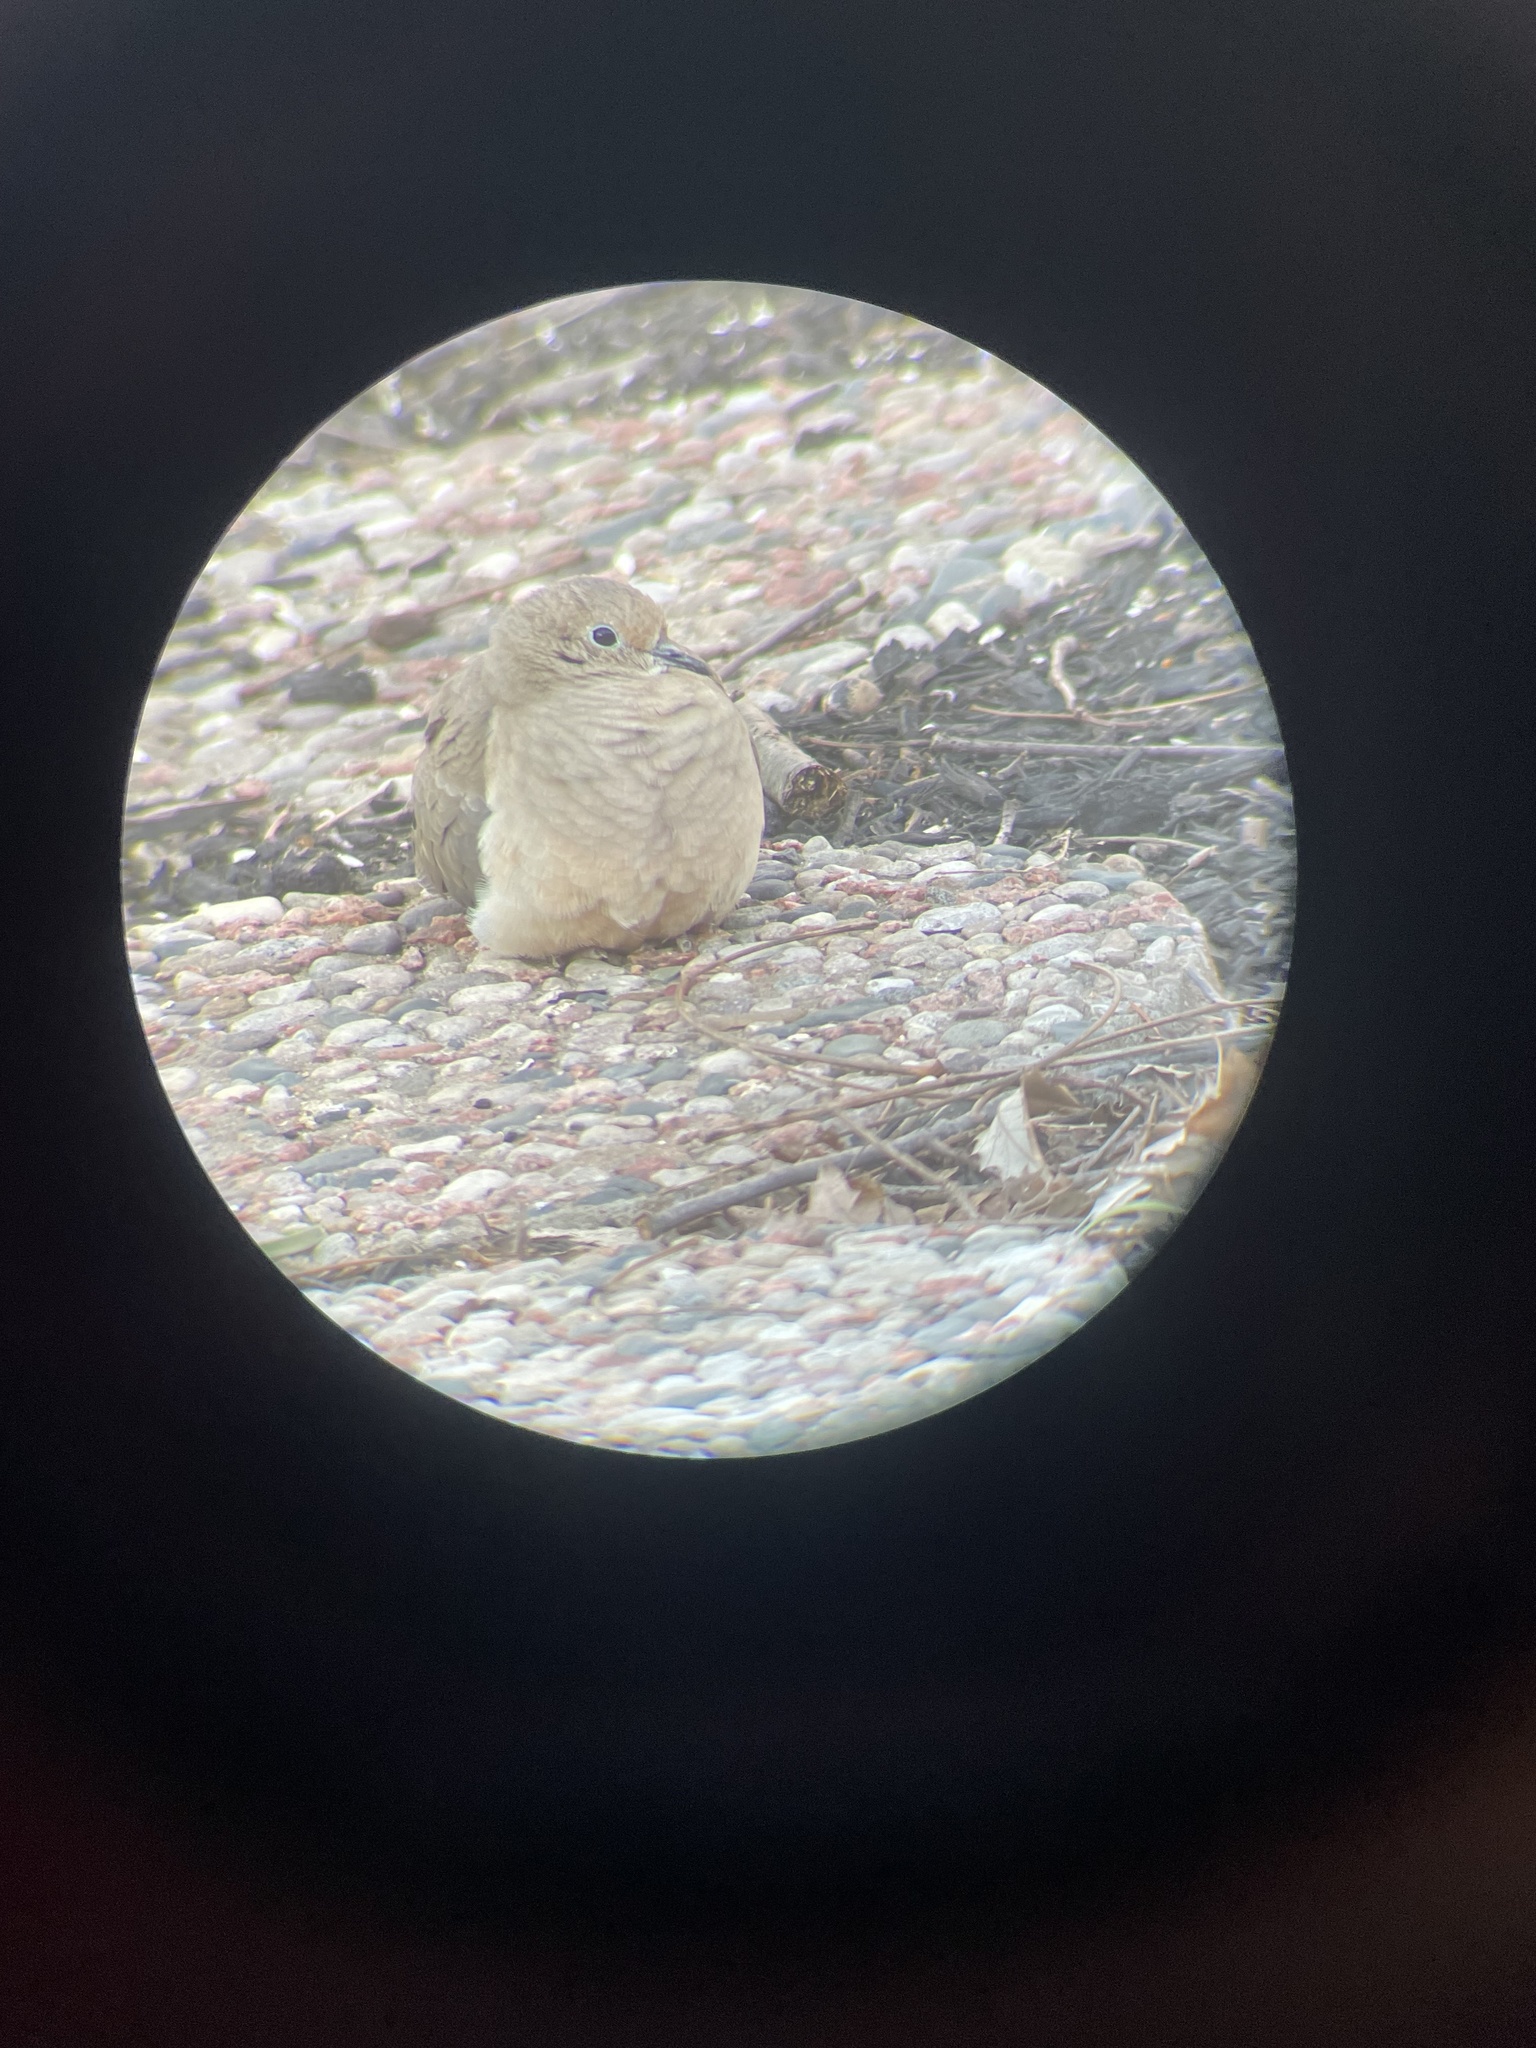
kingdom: Animalia
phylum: Chordata
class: Aves
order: Columbiformes
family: Columbidae
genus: Zenaida
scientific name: Zenaida macroura
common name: Mourning dove
